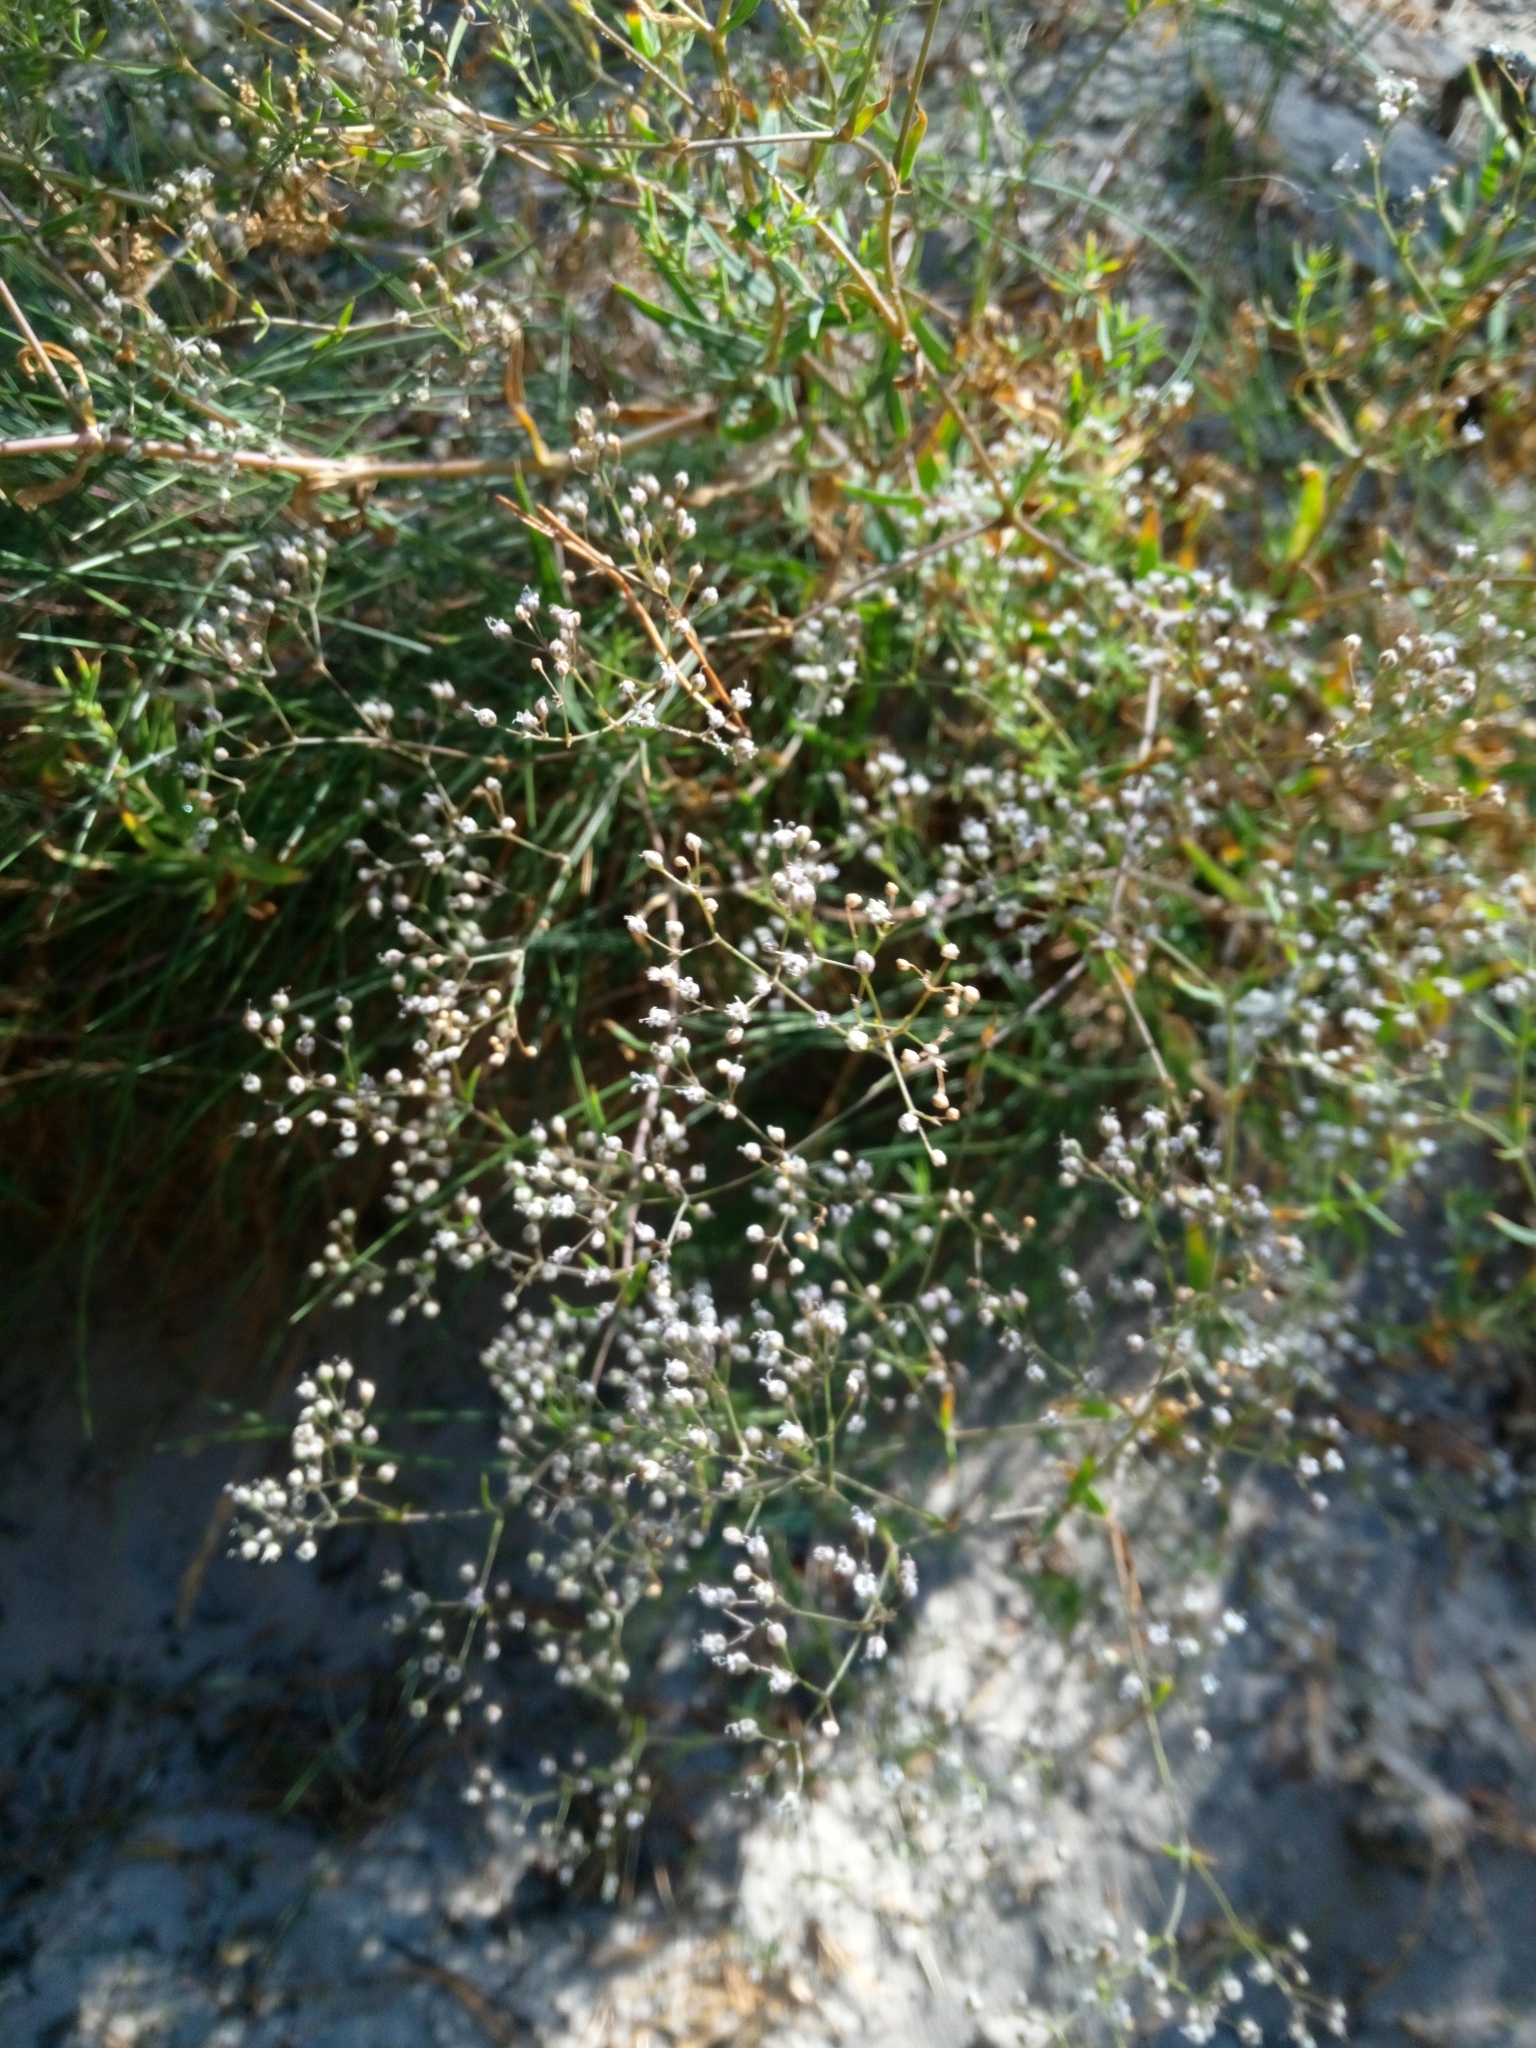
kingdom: Plantae
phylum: Tracheophyta
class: Magnoliopsida
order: Caryophyllales
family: Caryophyllaceae
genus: Gypsophila
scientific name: Gypsophila paniculata
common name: Baby's-breath
